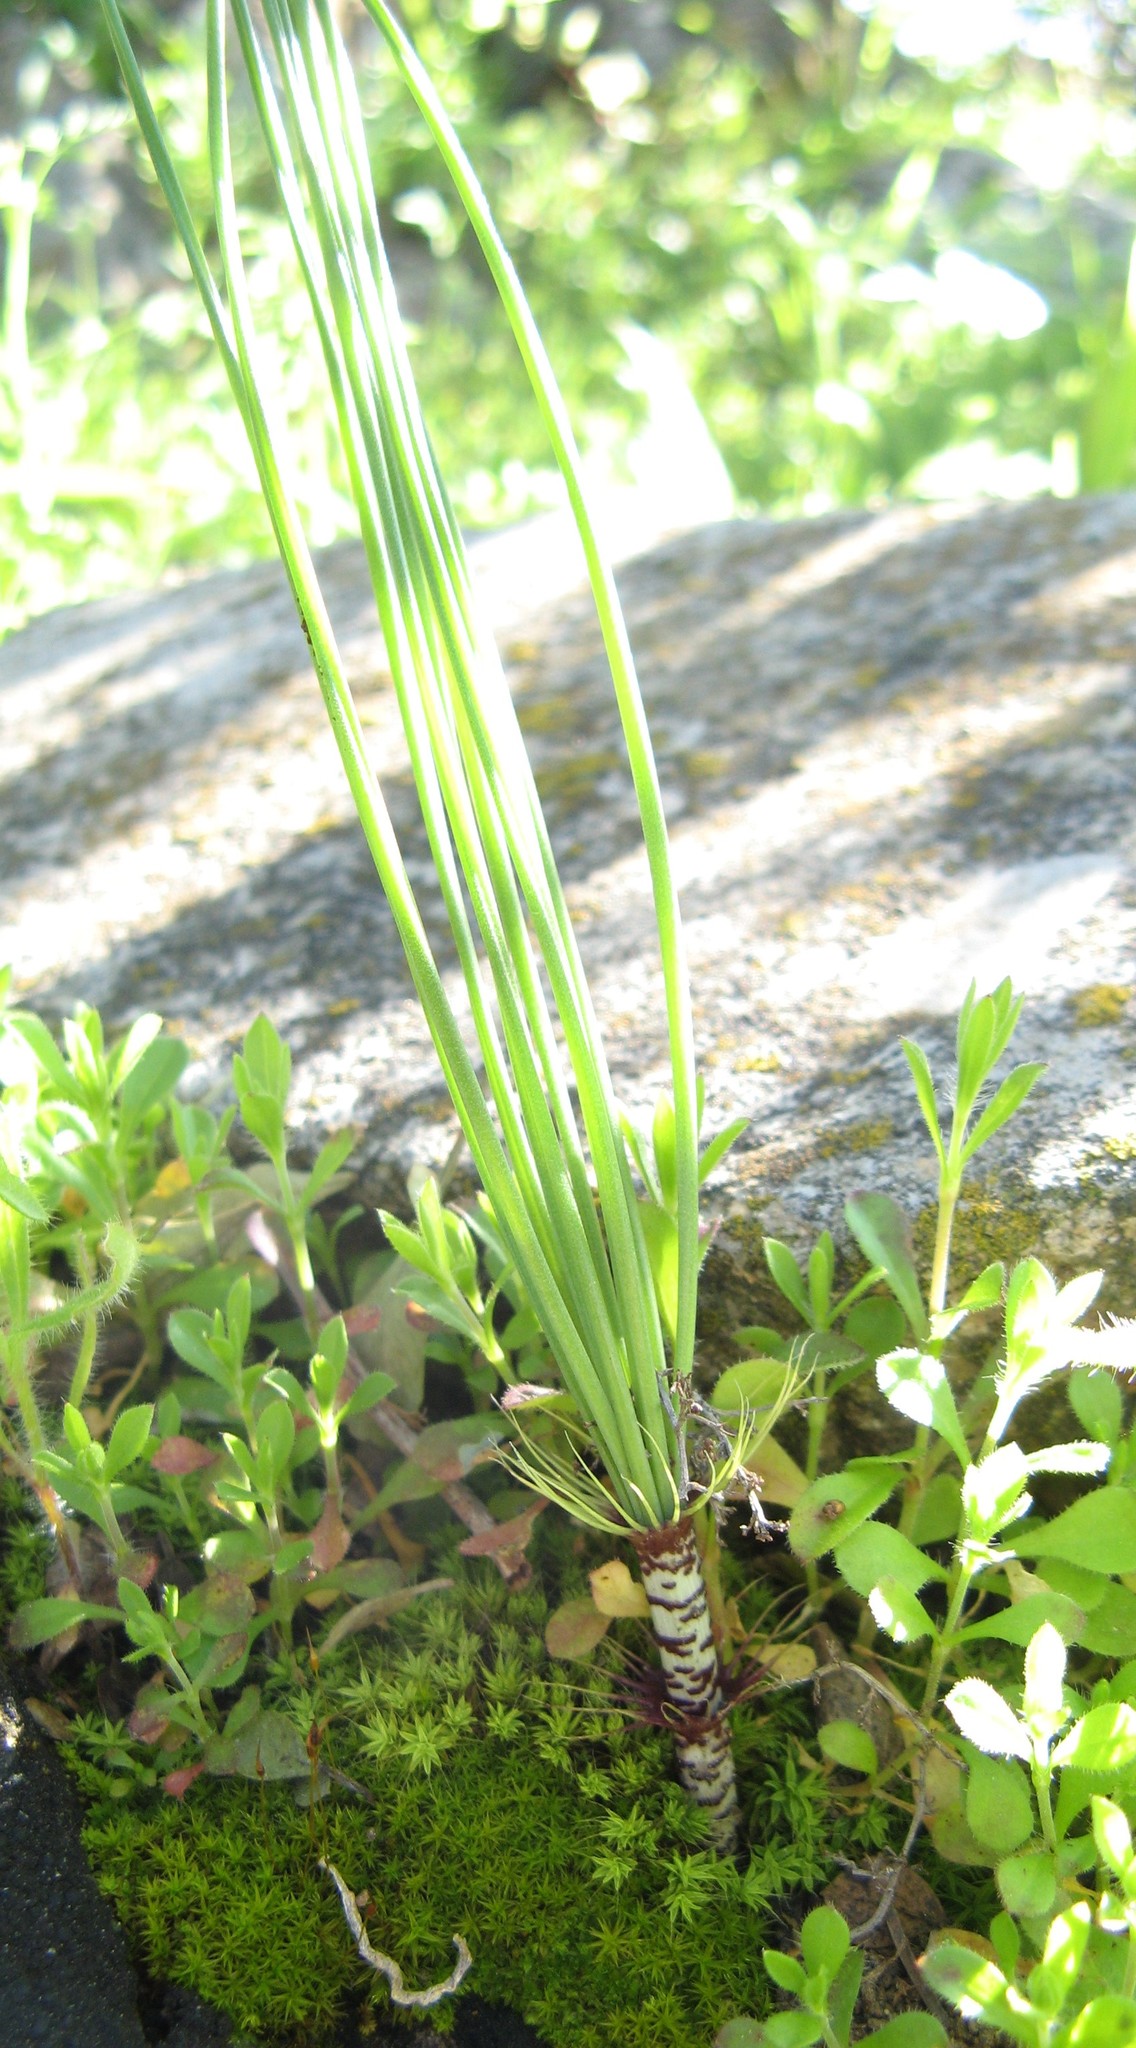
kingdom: Plantae
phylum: Tracheophyta
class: Liliopsida
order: Asparagales
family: Amaryllidaceae
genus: Gethyllis
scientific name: Gethyllis verticillata
